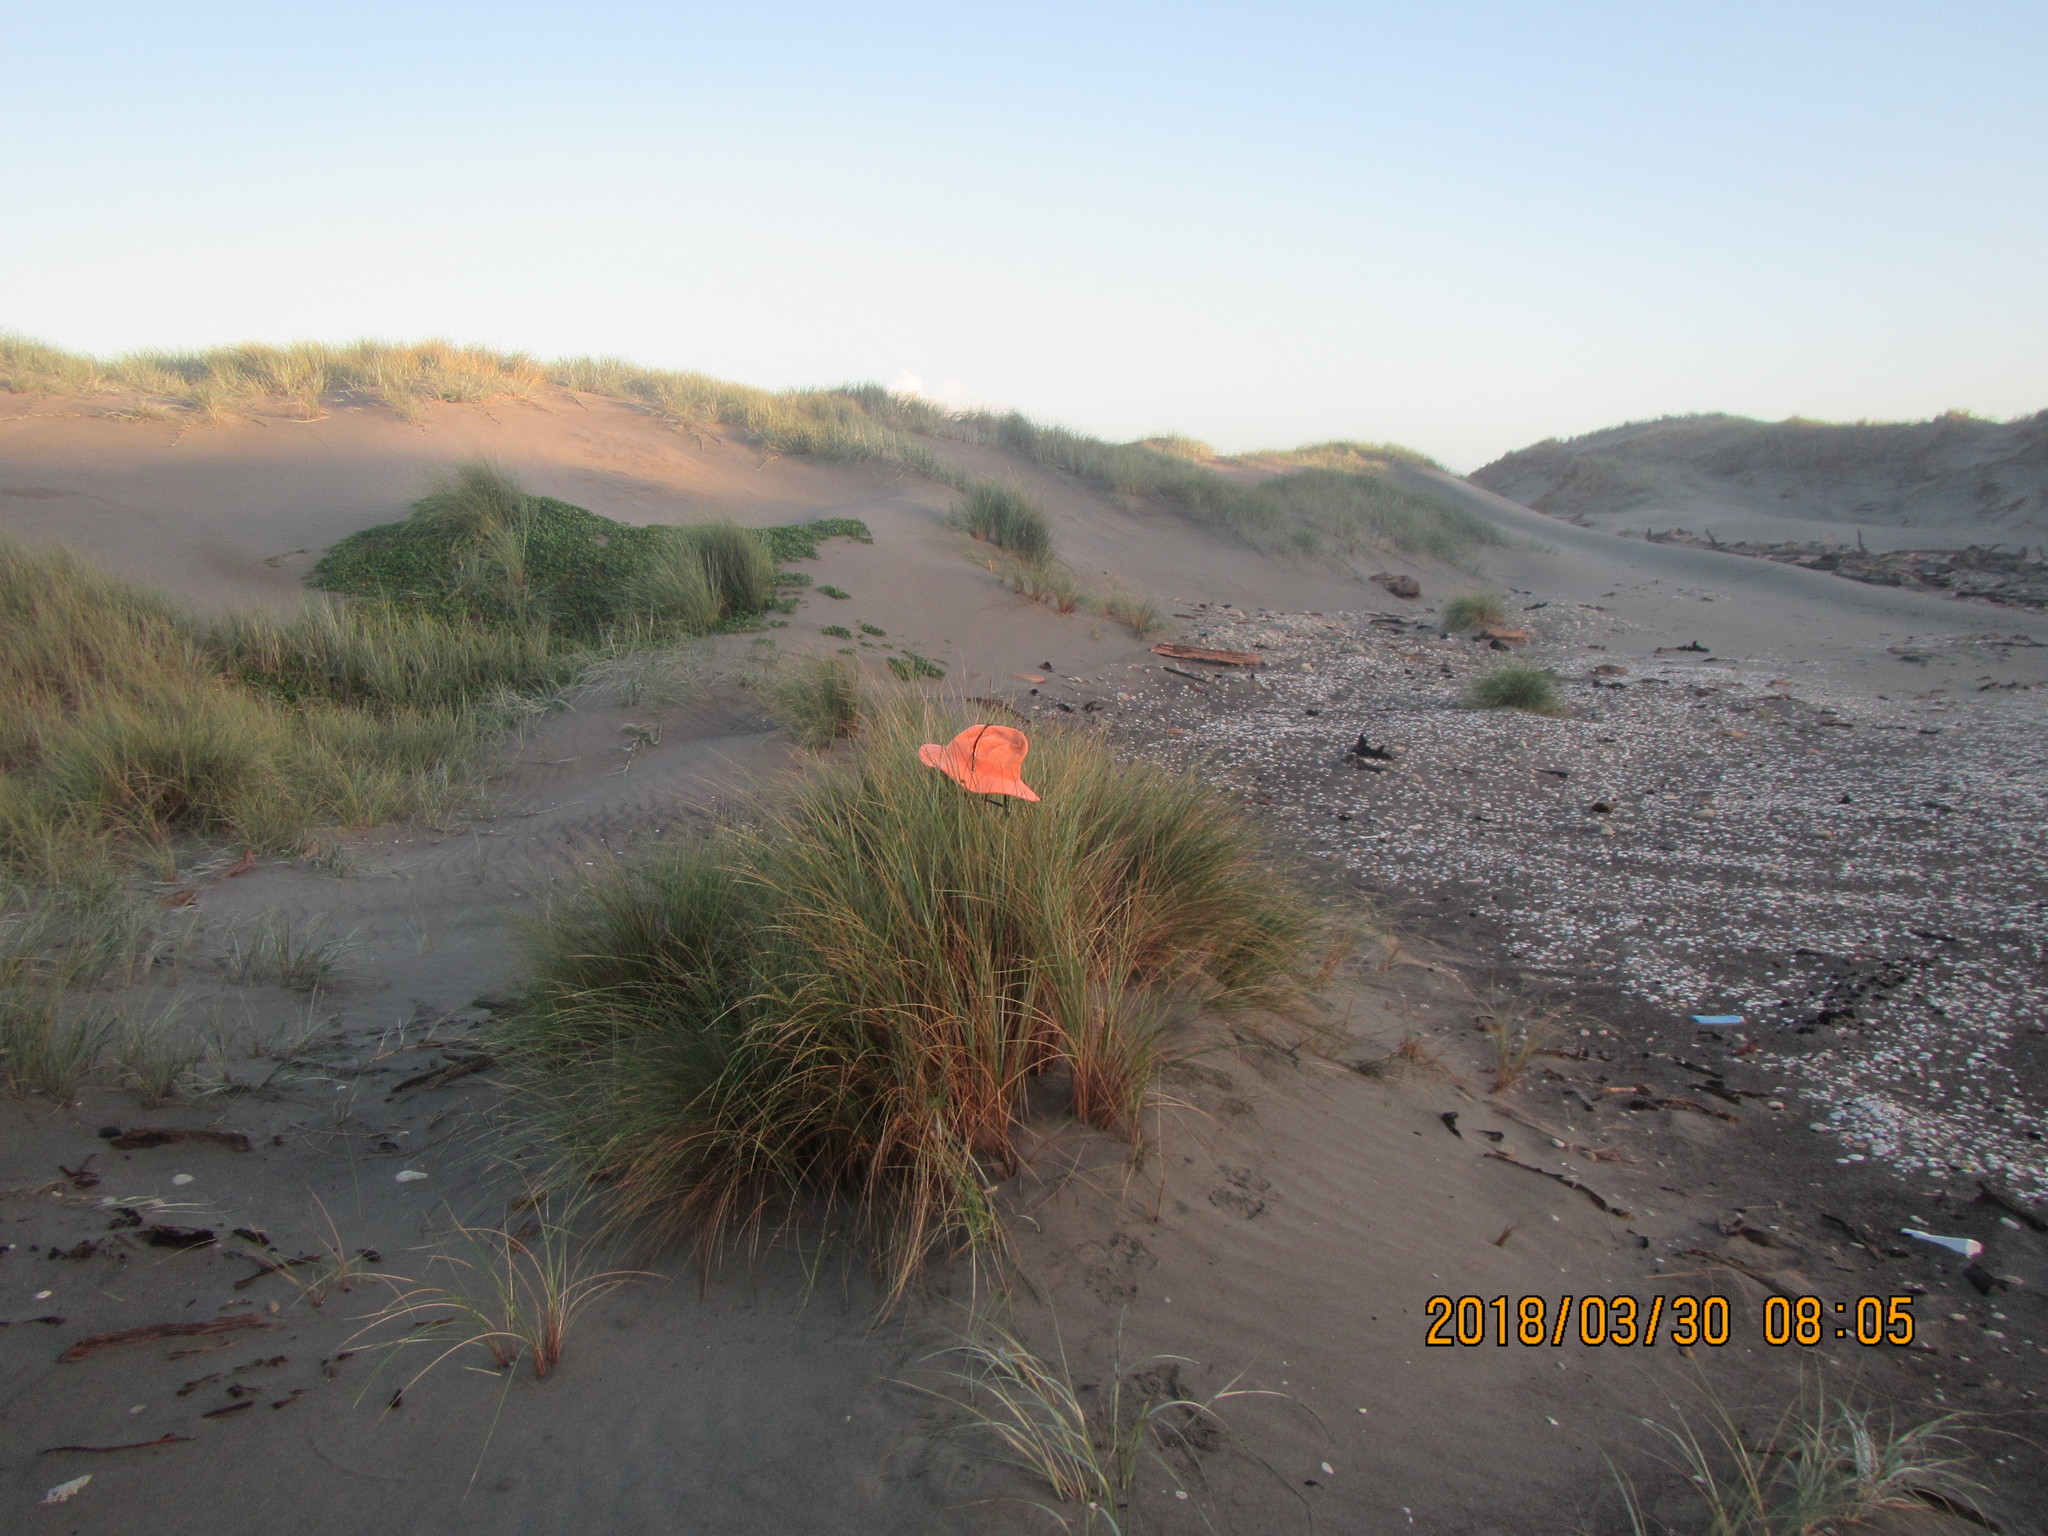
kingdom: Plantae
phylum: Tracheophyta
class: Liliopsida
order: Poales
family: Poaceae
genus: Calamagrostis
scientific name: Calamagrostis arenaria
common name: European beachgrass
